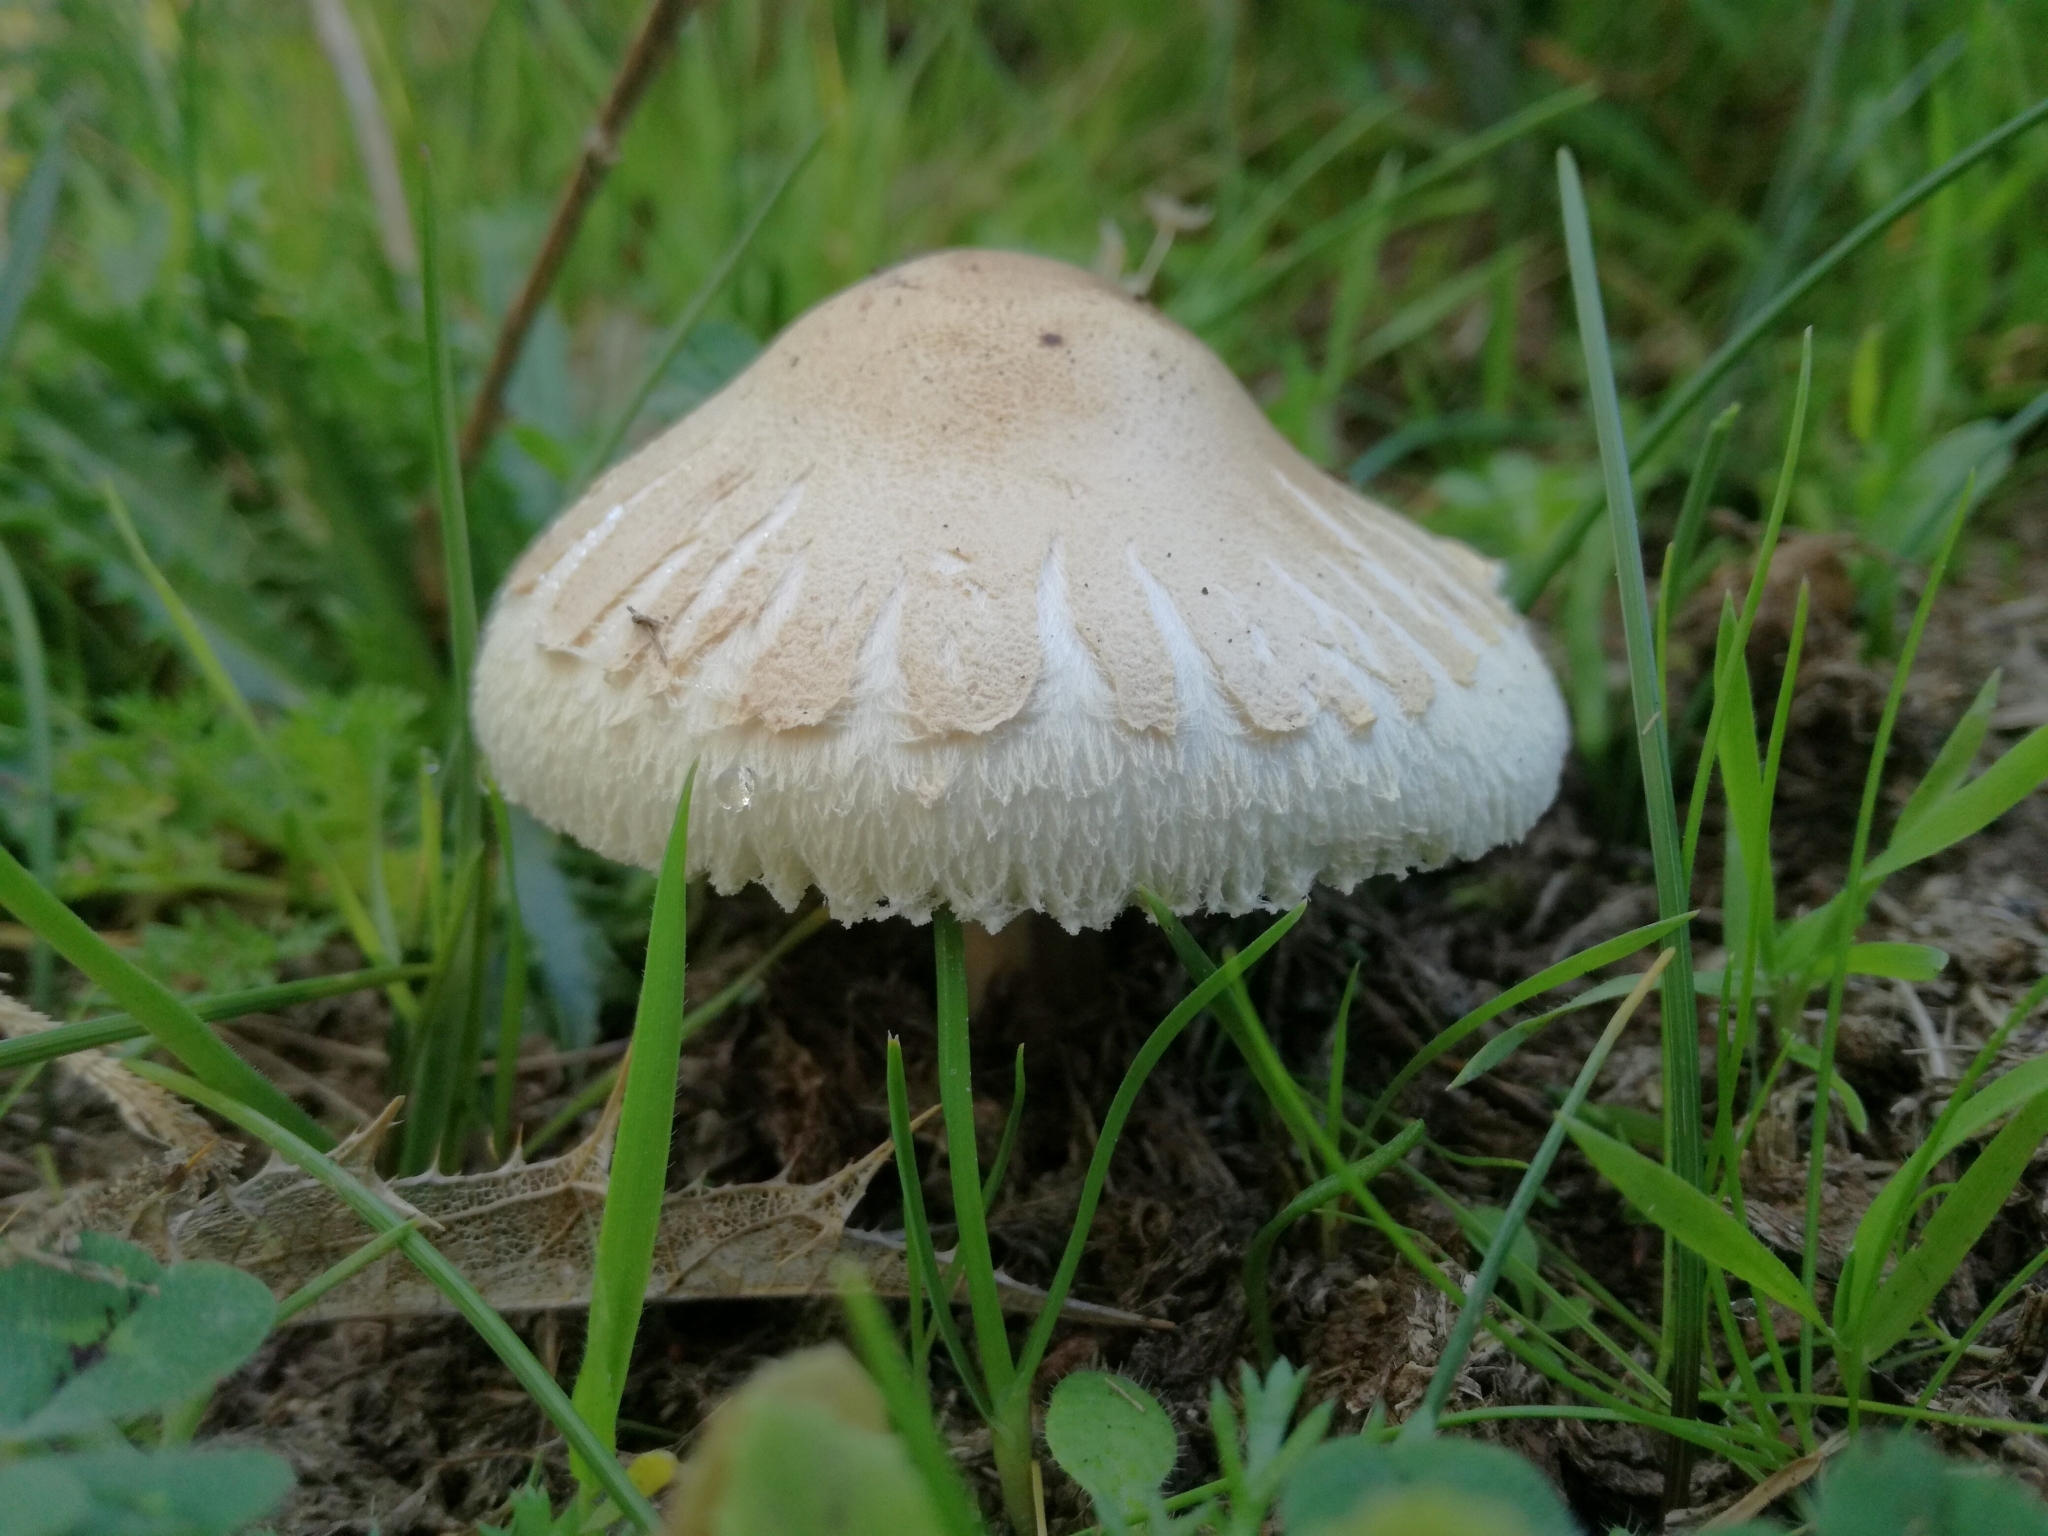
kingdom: Fungi
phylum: Basidiomycota
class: Agaricomycetes
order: Agaricales
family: Agaricaceae
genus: Macrolepiota
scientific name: Macrolepiota excoriata
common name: Frayed parasol
